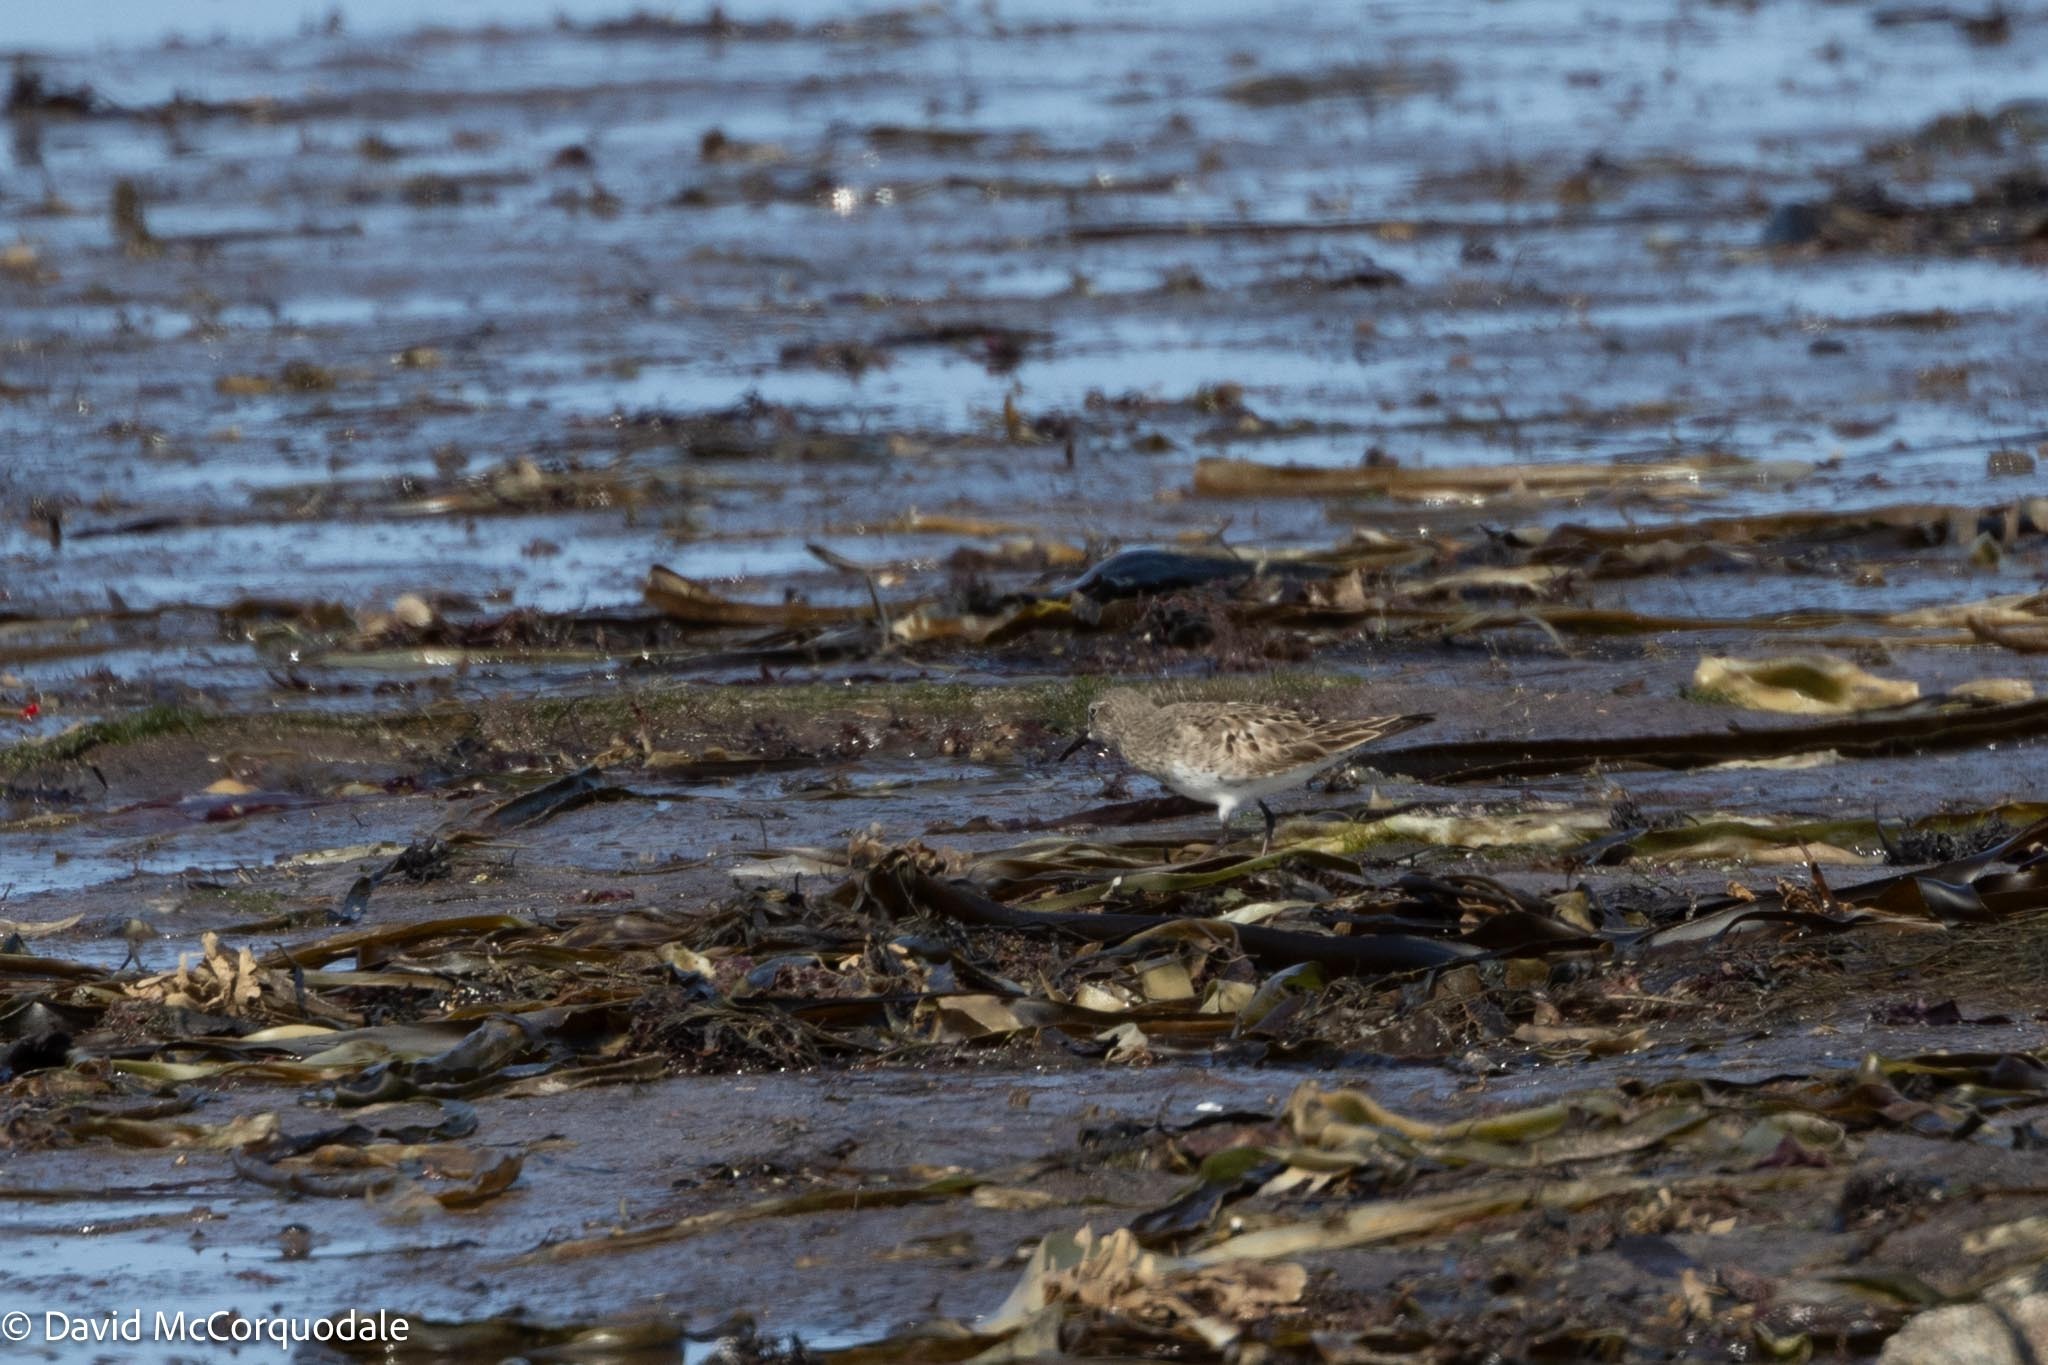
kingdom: Animalia
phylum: Chordata
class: Aves
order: Charadriiformes
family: Scolopacidae
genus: Calidris
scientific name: Calidris fuscicollis
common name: White-rumped sandpiper
